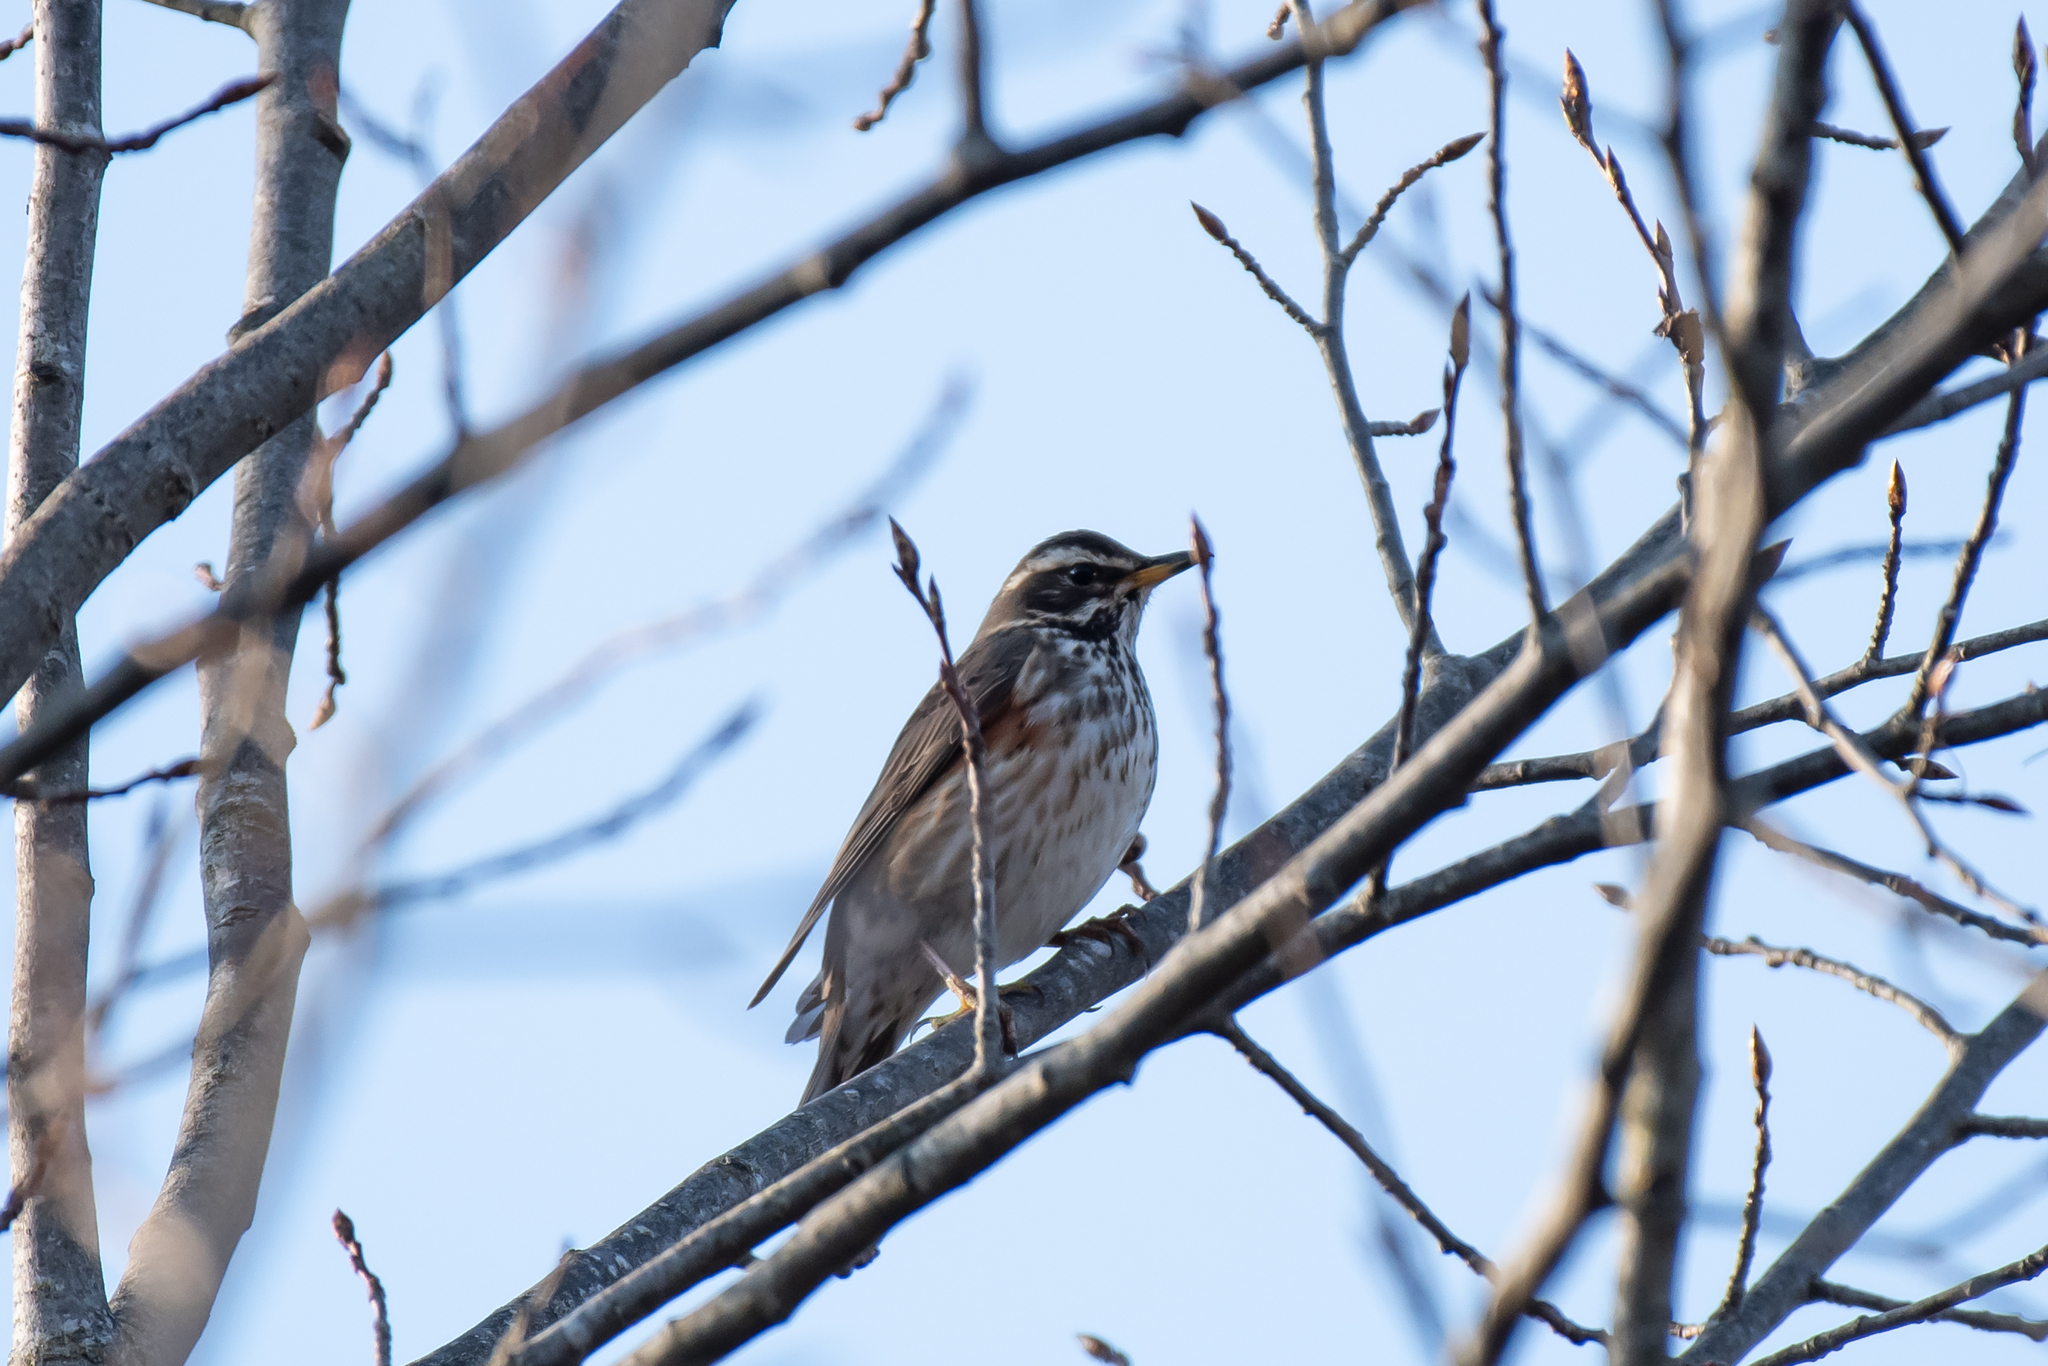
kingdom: Animalia
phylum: Chordata
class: Aves
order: Passeriformes
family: Turdidae
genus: Turdus
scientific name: Turdus iliacus
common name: Redwing
